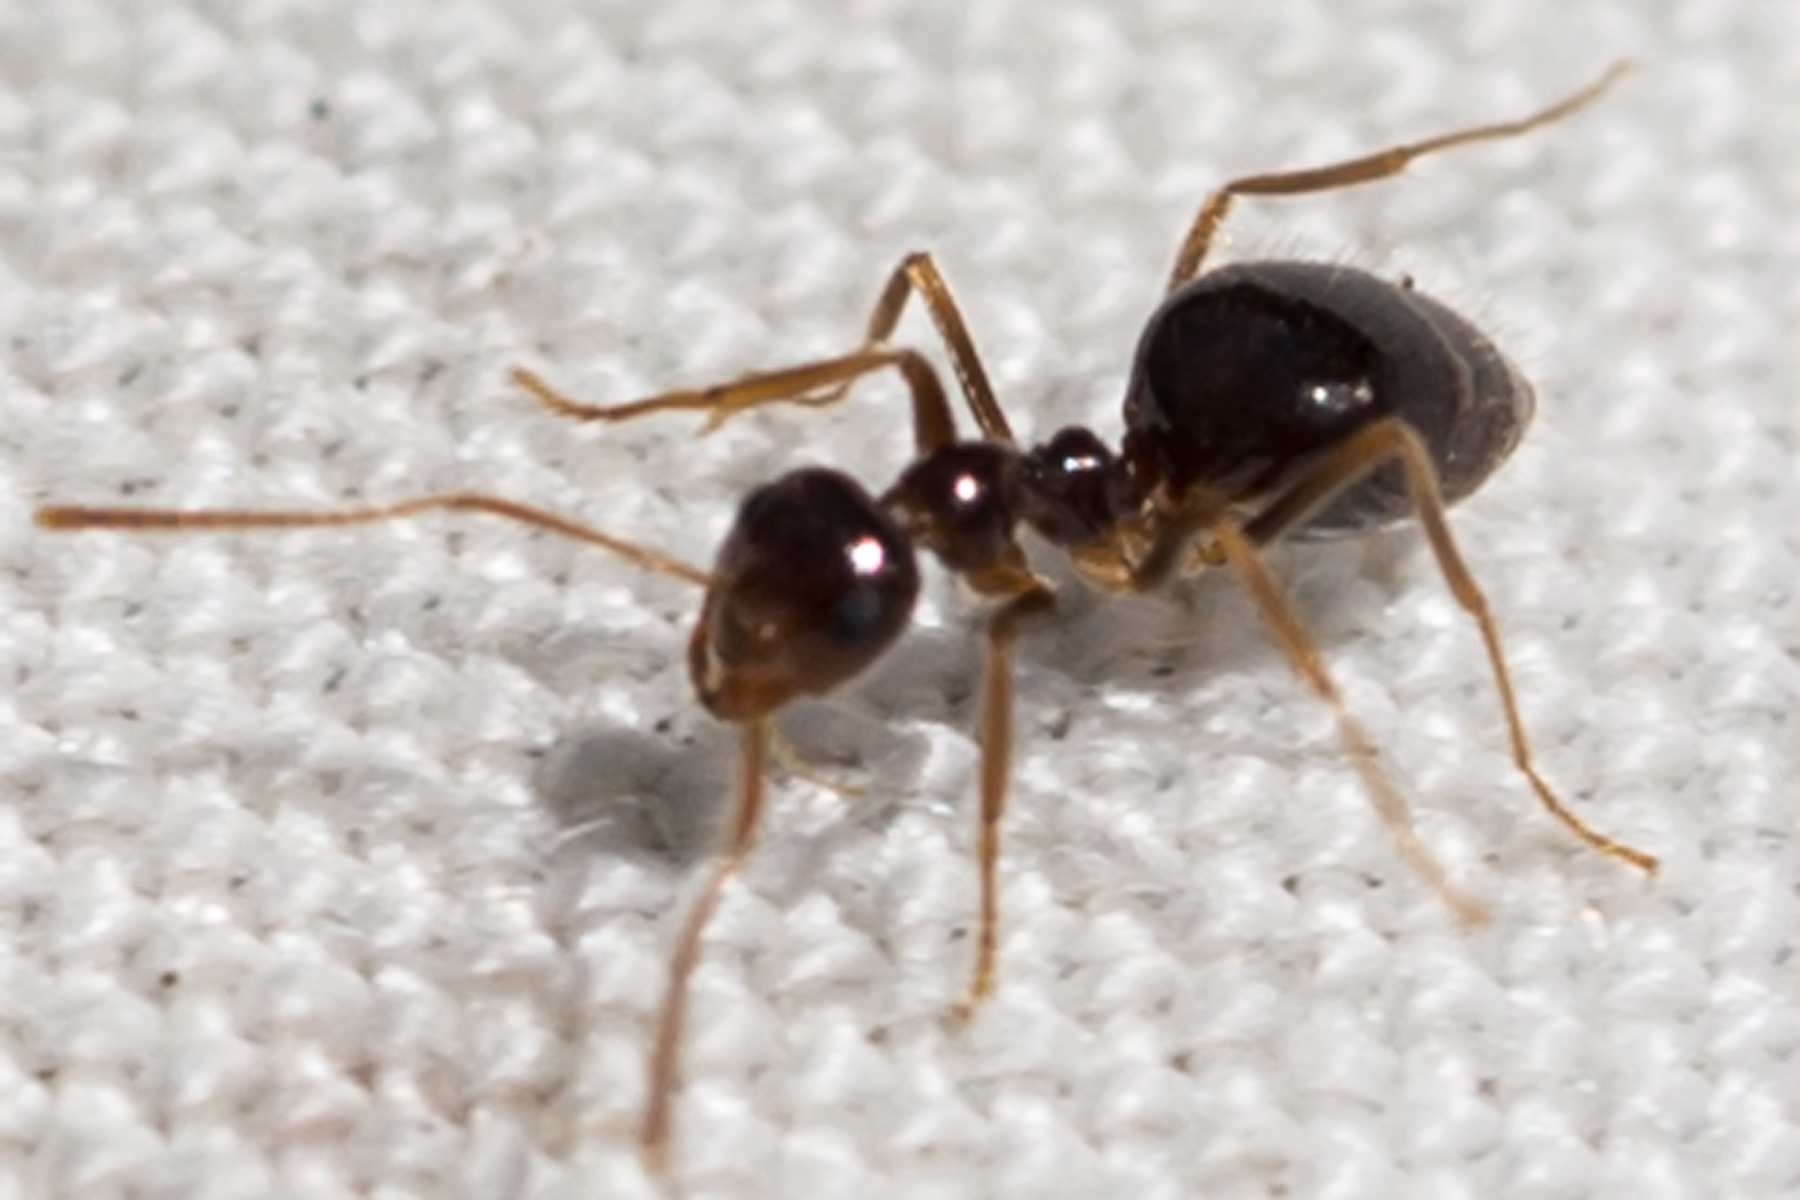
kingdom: Animalia
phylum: Arthropoda
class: Insecta
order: Hymenoptera
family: Formicidae
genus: Prenolepis
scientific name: Prenolepis imparis
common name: Small honey ant
